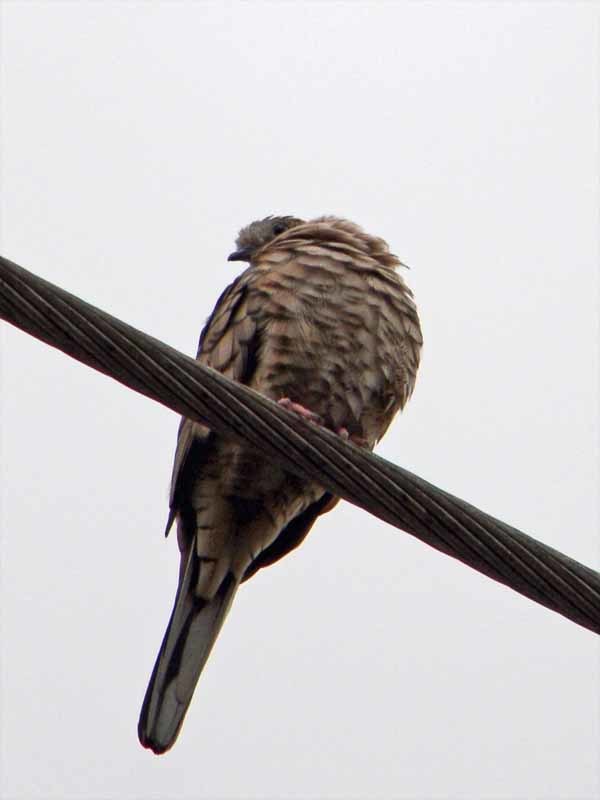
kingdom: Animalia
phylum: Chordata
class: Aves
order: Columbiformes
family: Columbidae
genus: Columbina
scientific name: Columbina inca
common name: Inca dove
